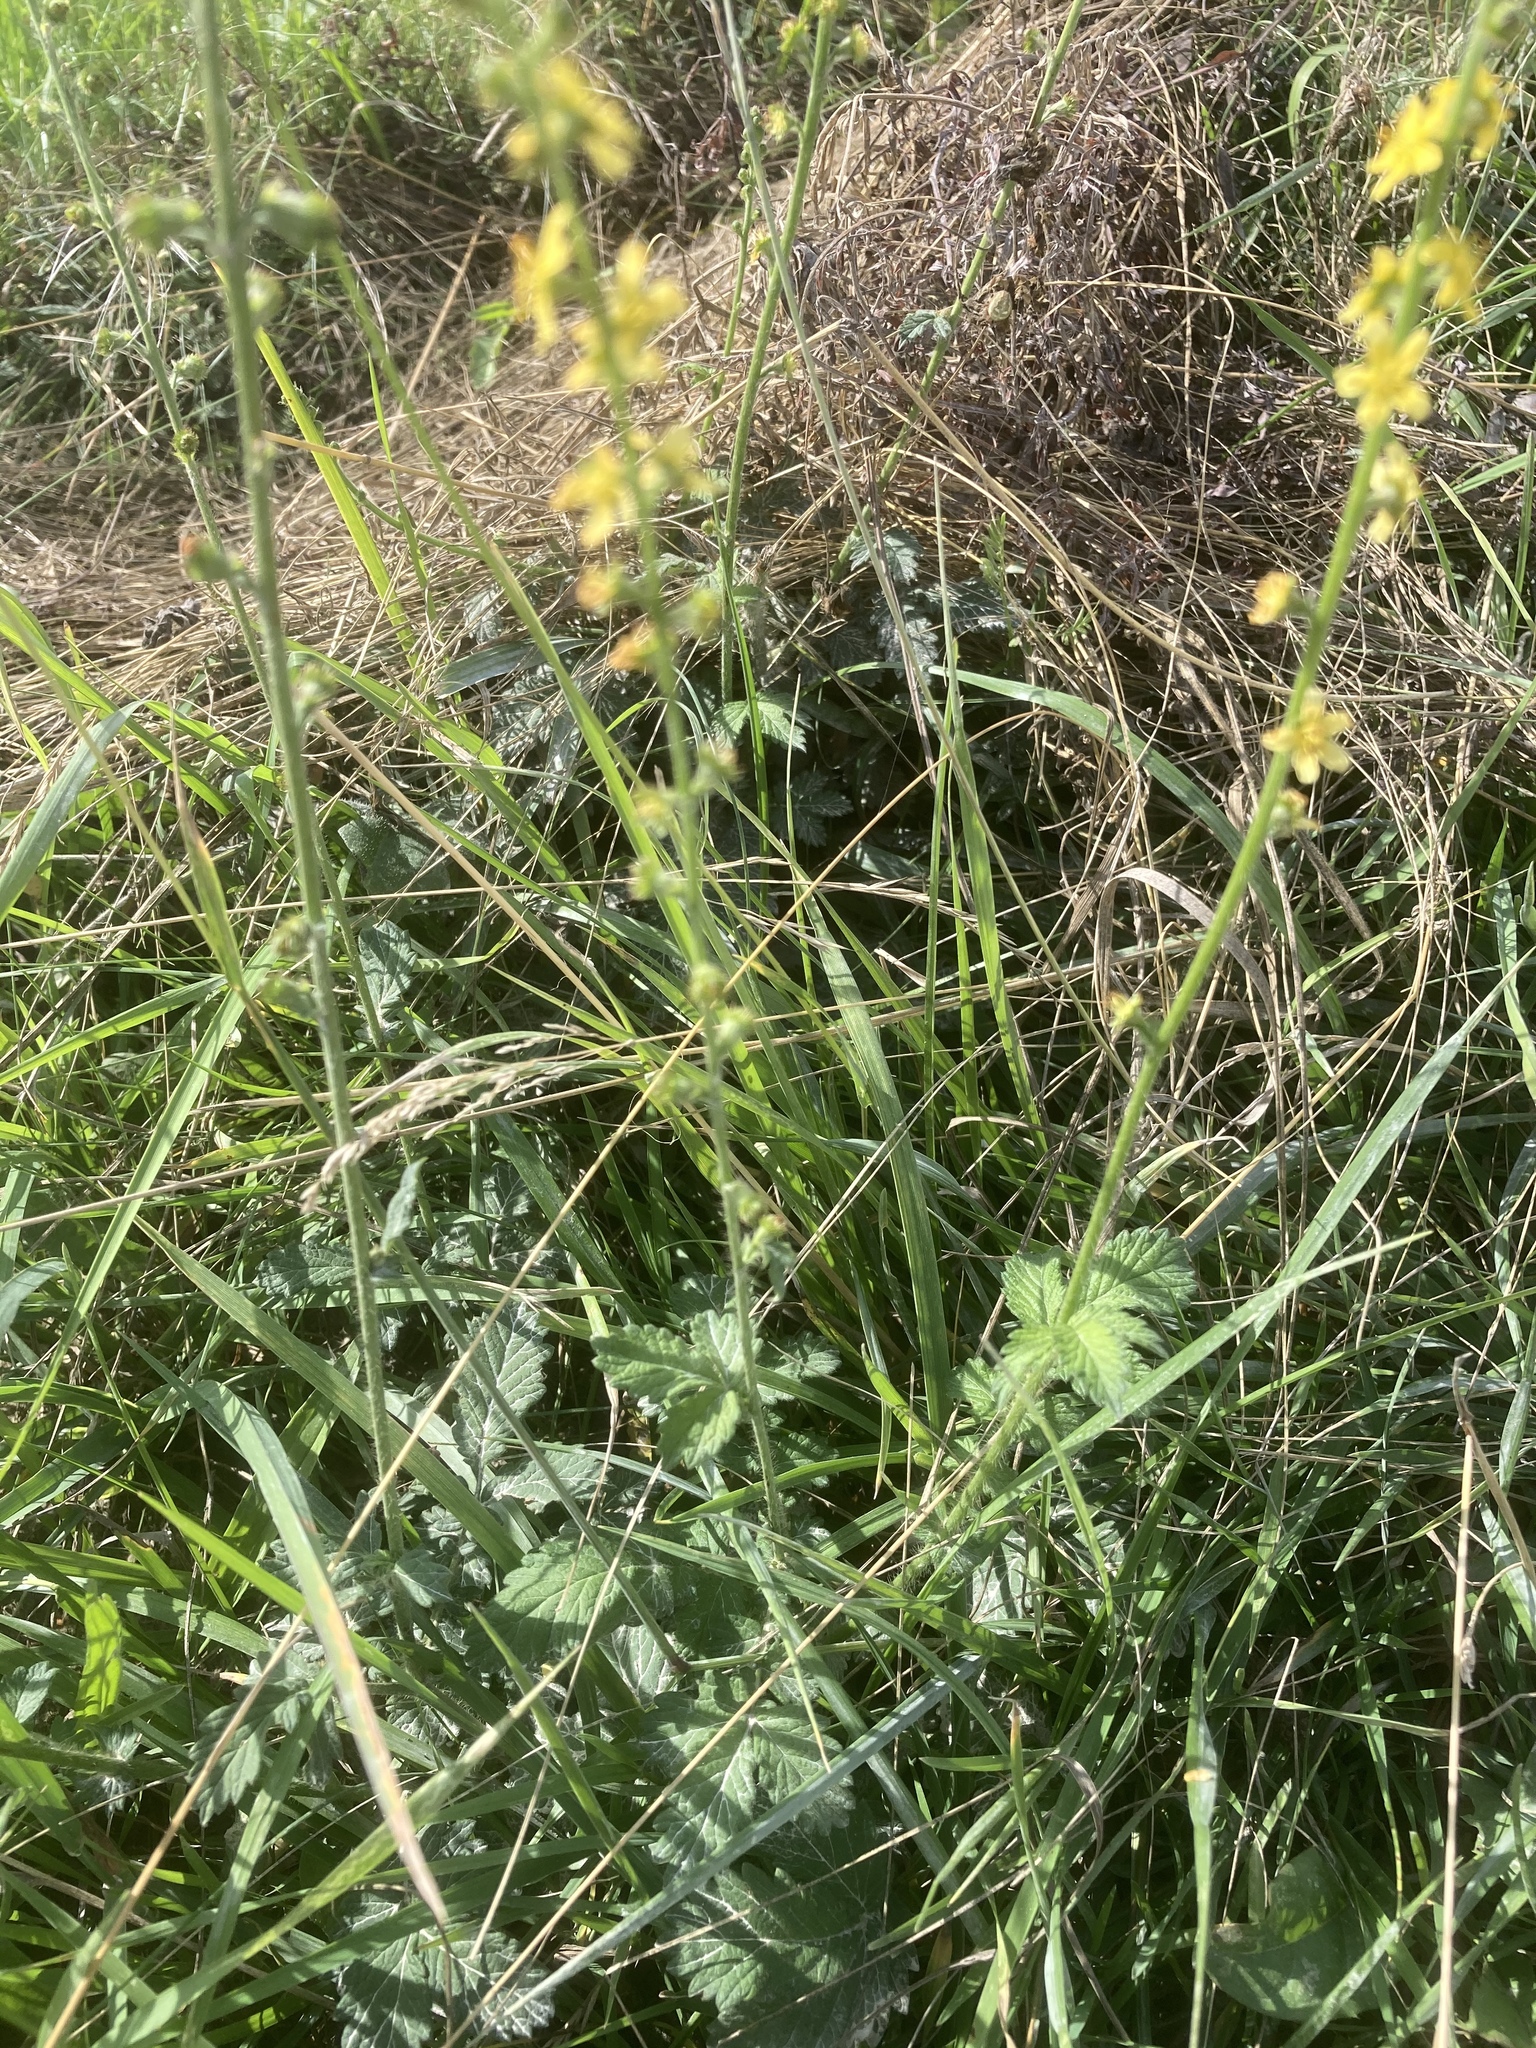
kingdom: Plantae
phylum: Tracheophyta
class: Magnoliopsida
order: Rosales
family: Rosaceae
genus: Agrimonia
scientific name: Agrimonia eupatoria
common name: Agrimony
